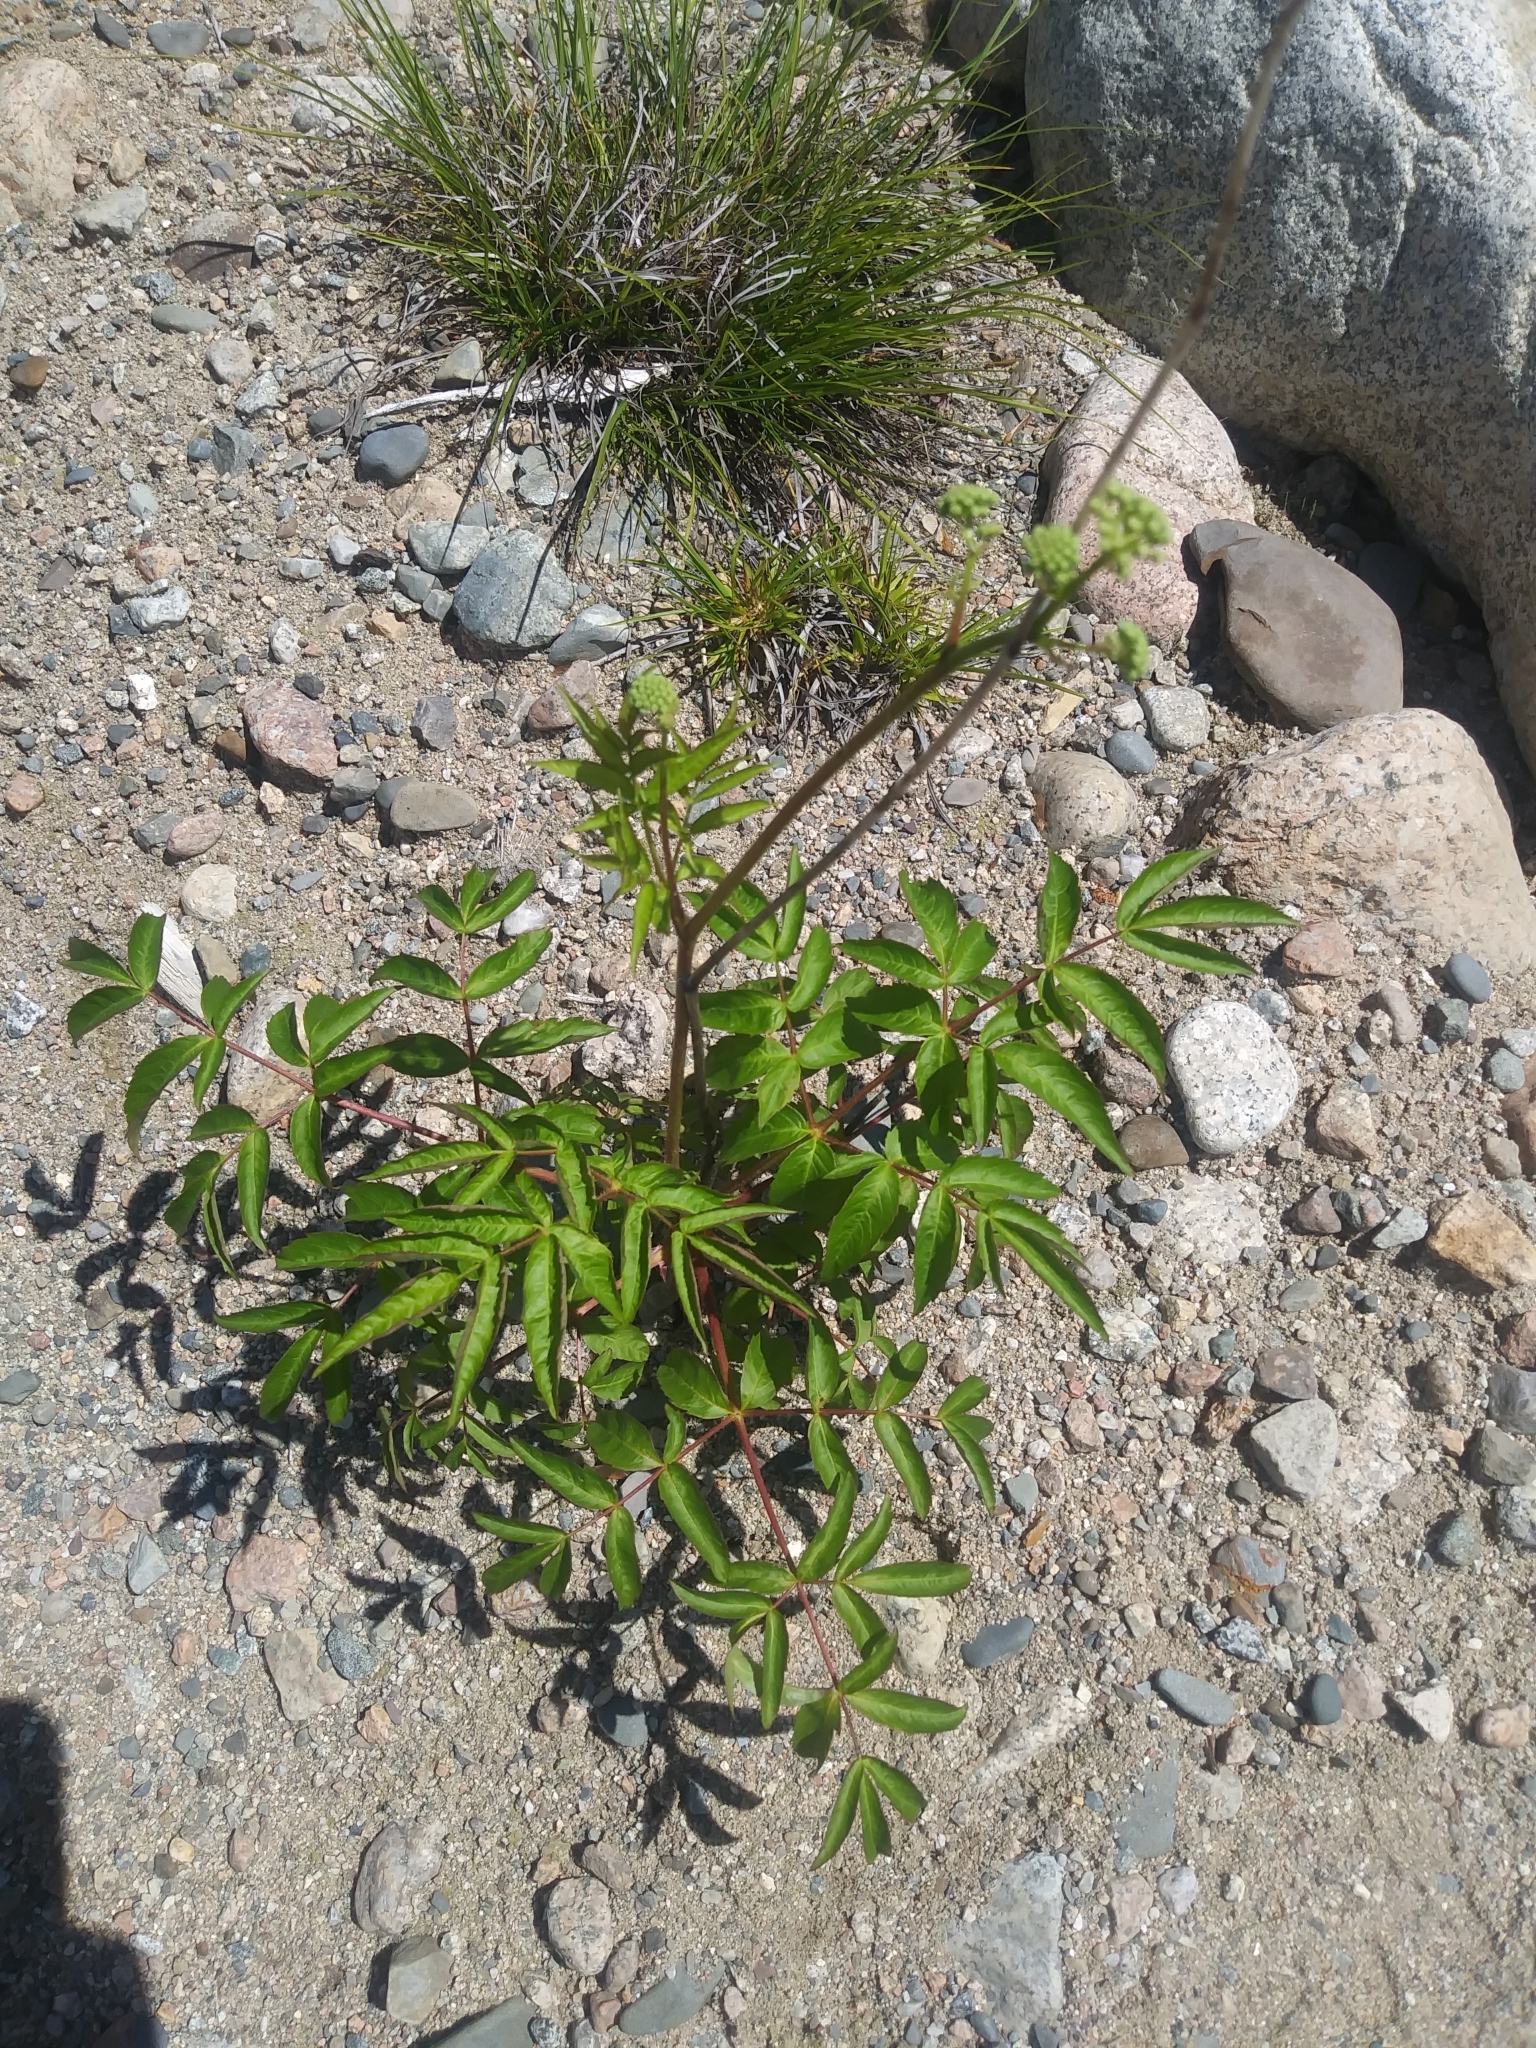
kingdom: Plantae
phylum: Tracheophyta
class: Magnoliopsida
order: Apiales
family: Araliaceae
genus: Aralia
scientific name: Aralia hispida
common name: Bristly sarsaparilla
